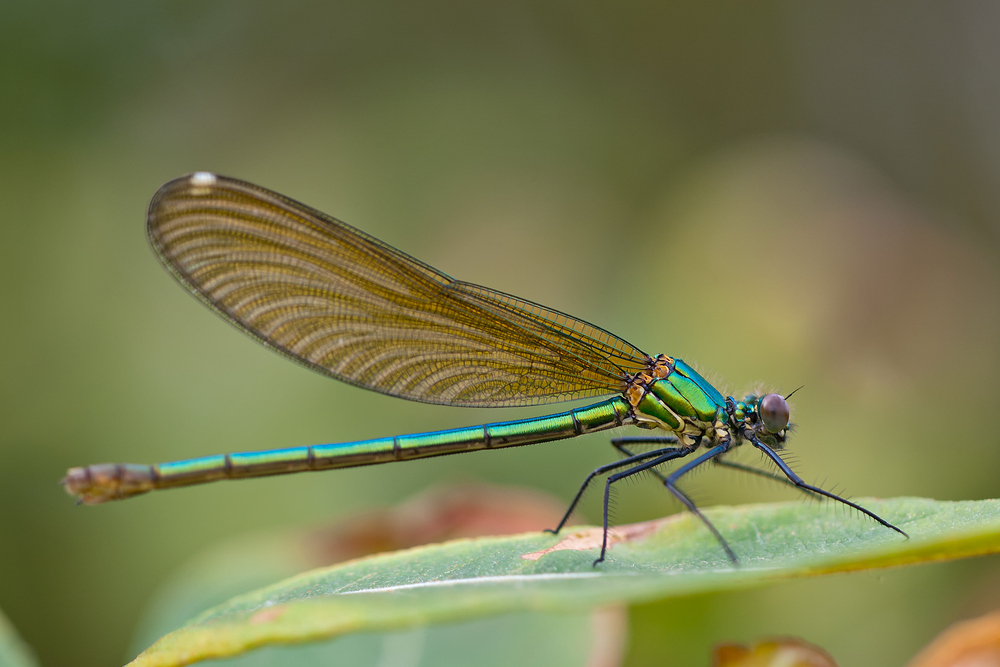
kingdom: Animalia
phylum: Arthropoda
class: Insecta
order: Odonata
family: Calopterygidae
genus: Calopteryx
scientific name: Calopteryx xanthostoma
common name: Western demoiselle
